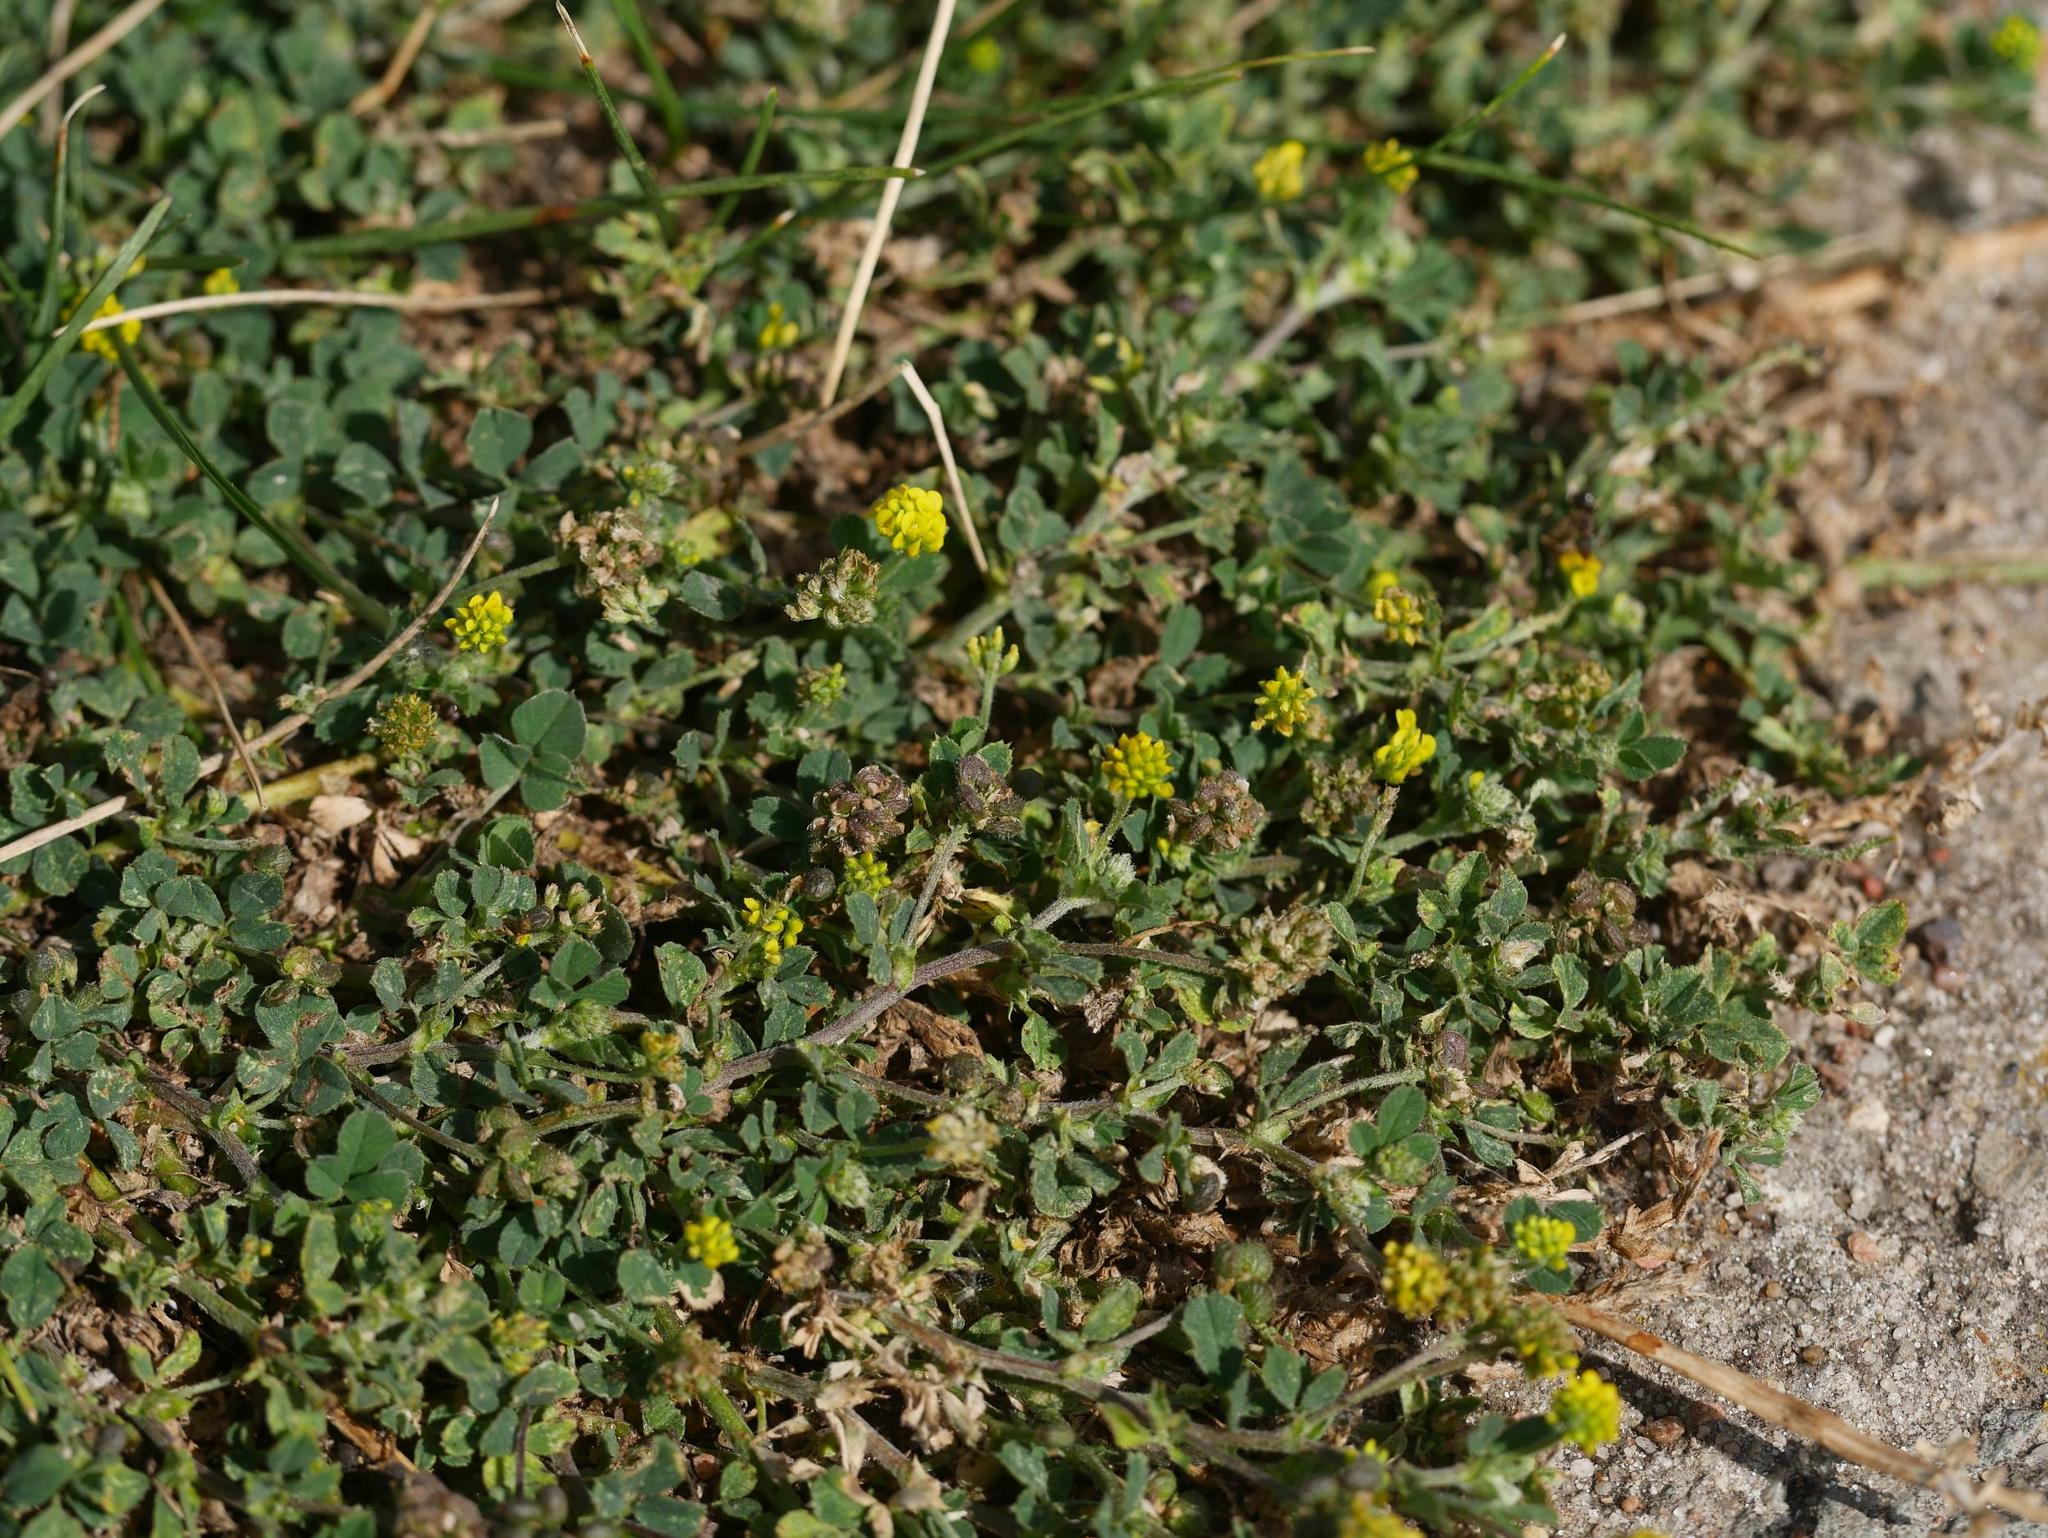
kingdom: Plantae
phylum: Tracheophyta
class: Magnoliopsida
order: Fabales
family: Fabaceae
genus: Medicago
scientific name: Medicago lupulina
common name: Black medick
